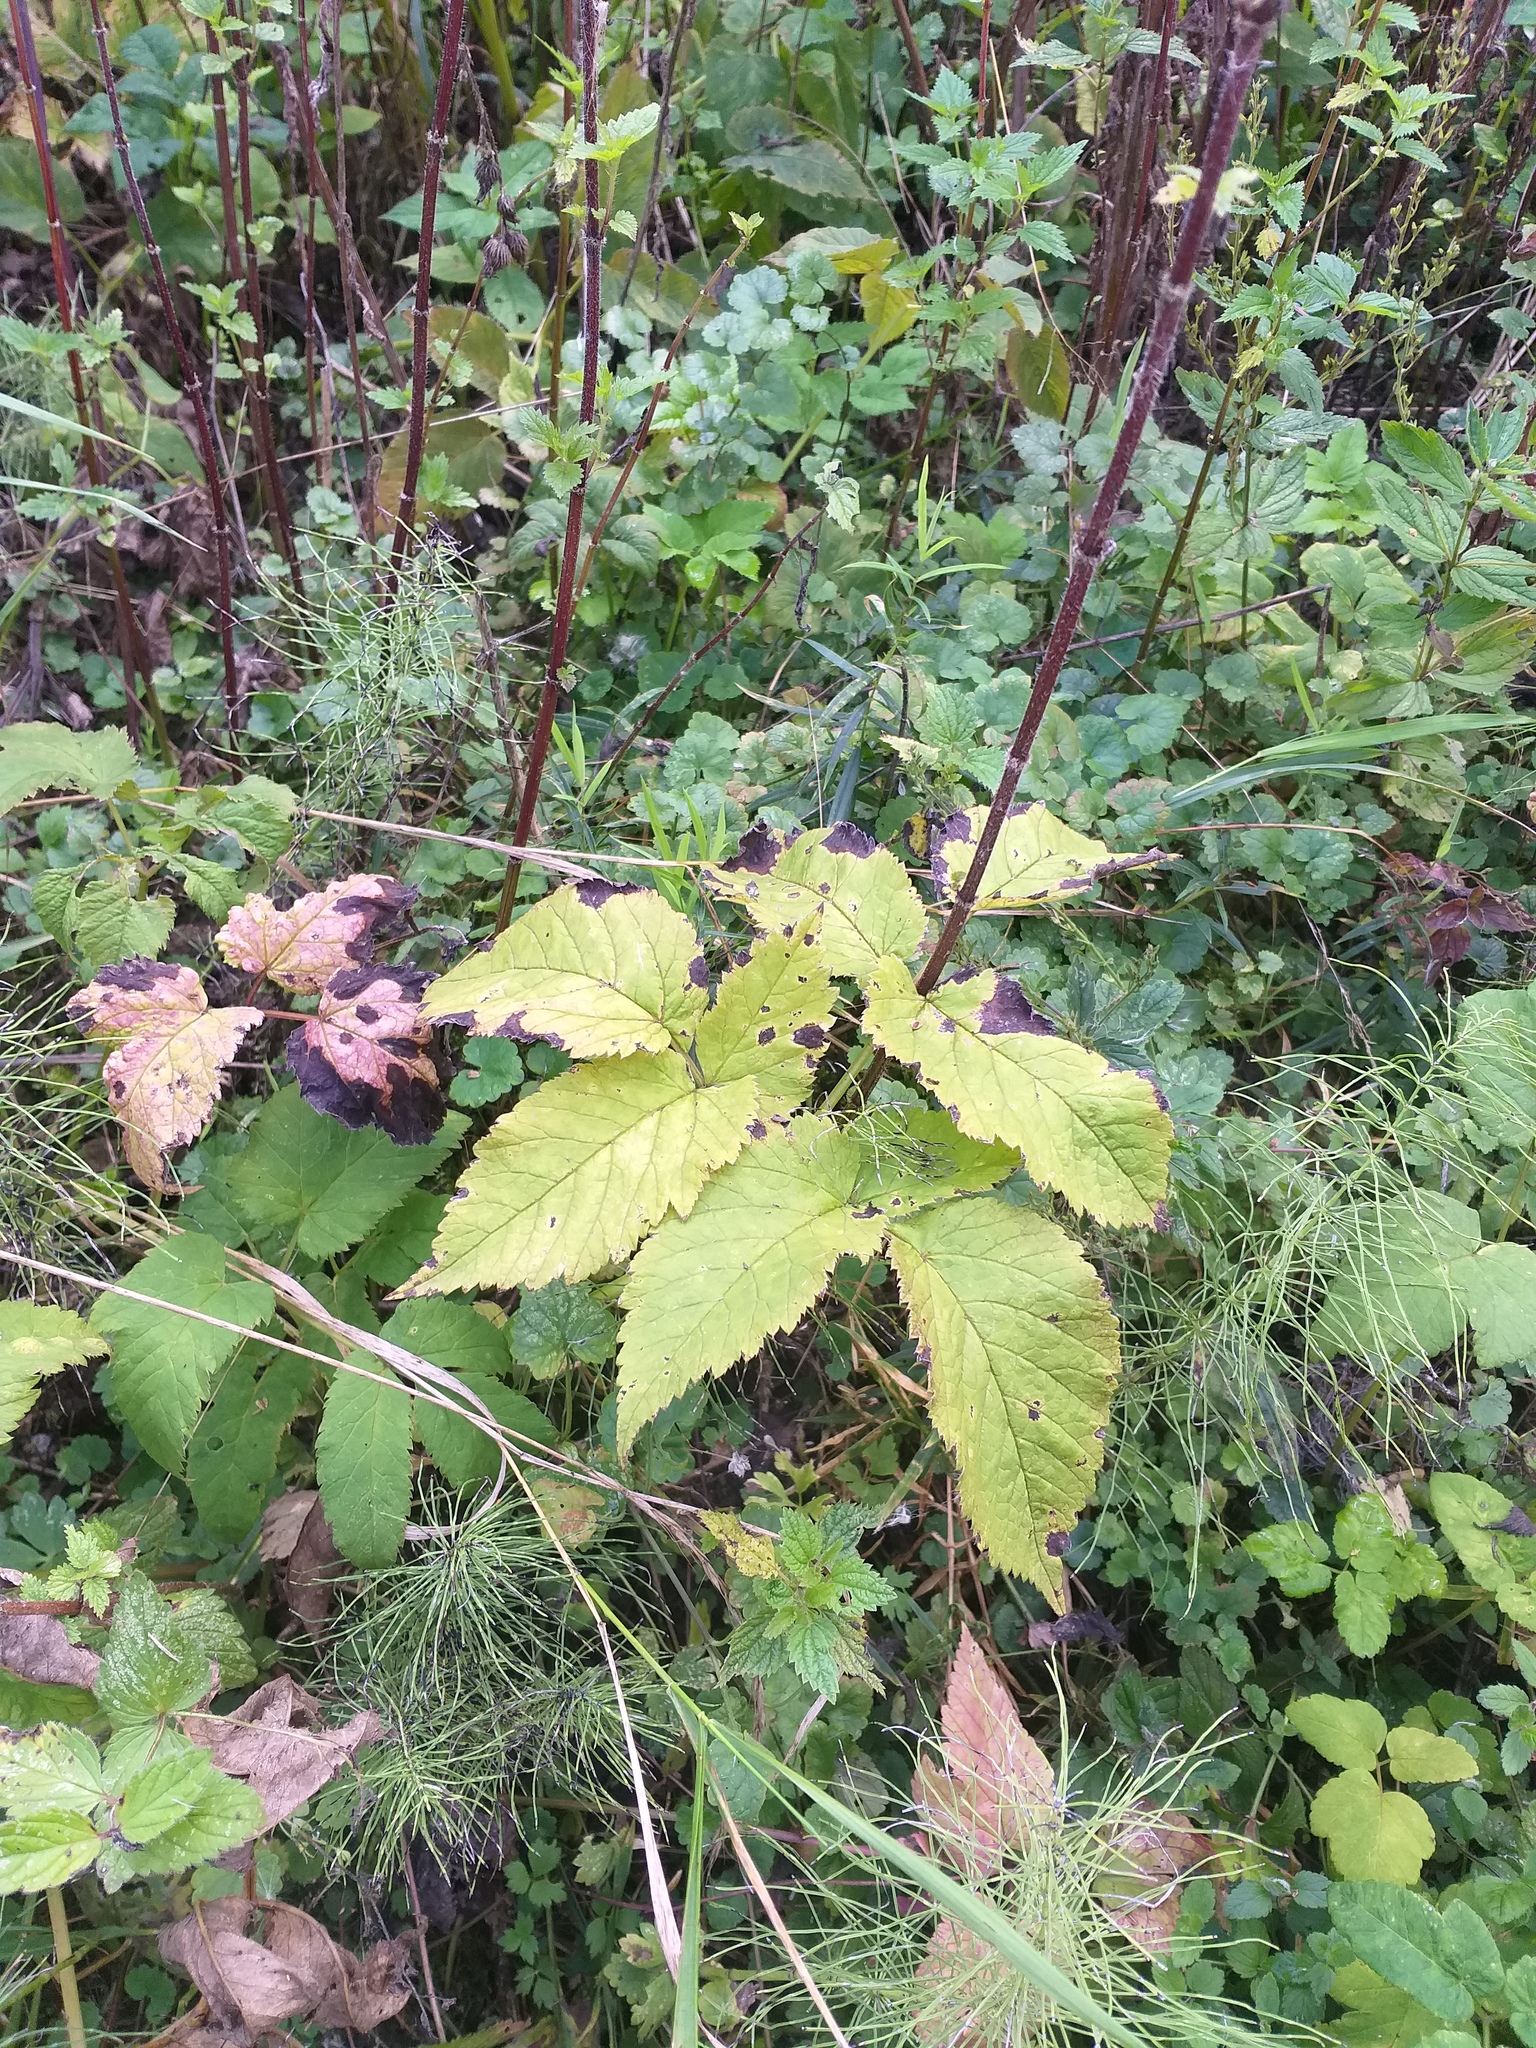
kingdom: Plantae
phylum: Tracheophyta
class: Magnoliopsida
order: Apiales
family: Apiaceae
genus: Aegopodium
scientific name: Aegopodium podagraria
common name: Ground-elder
